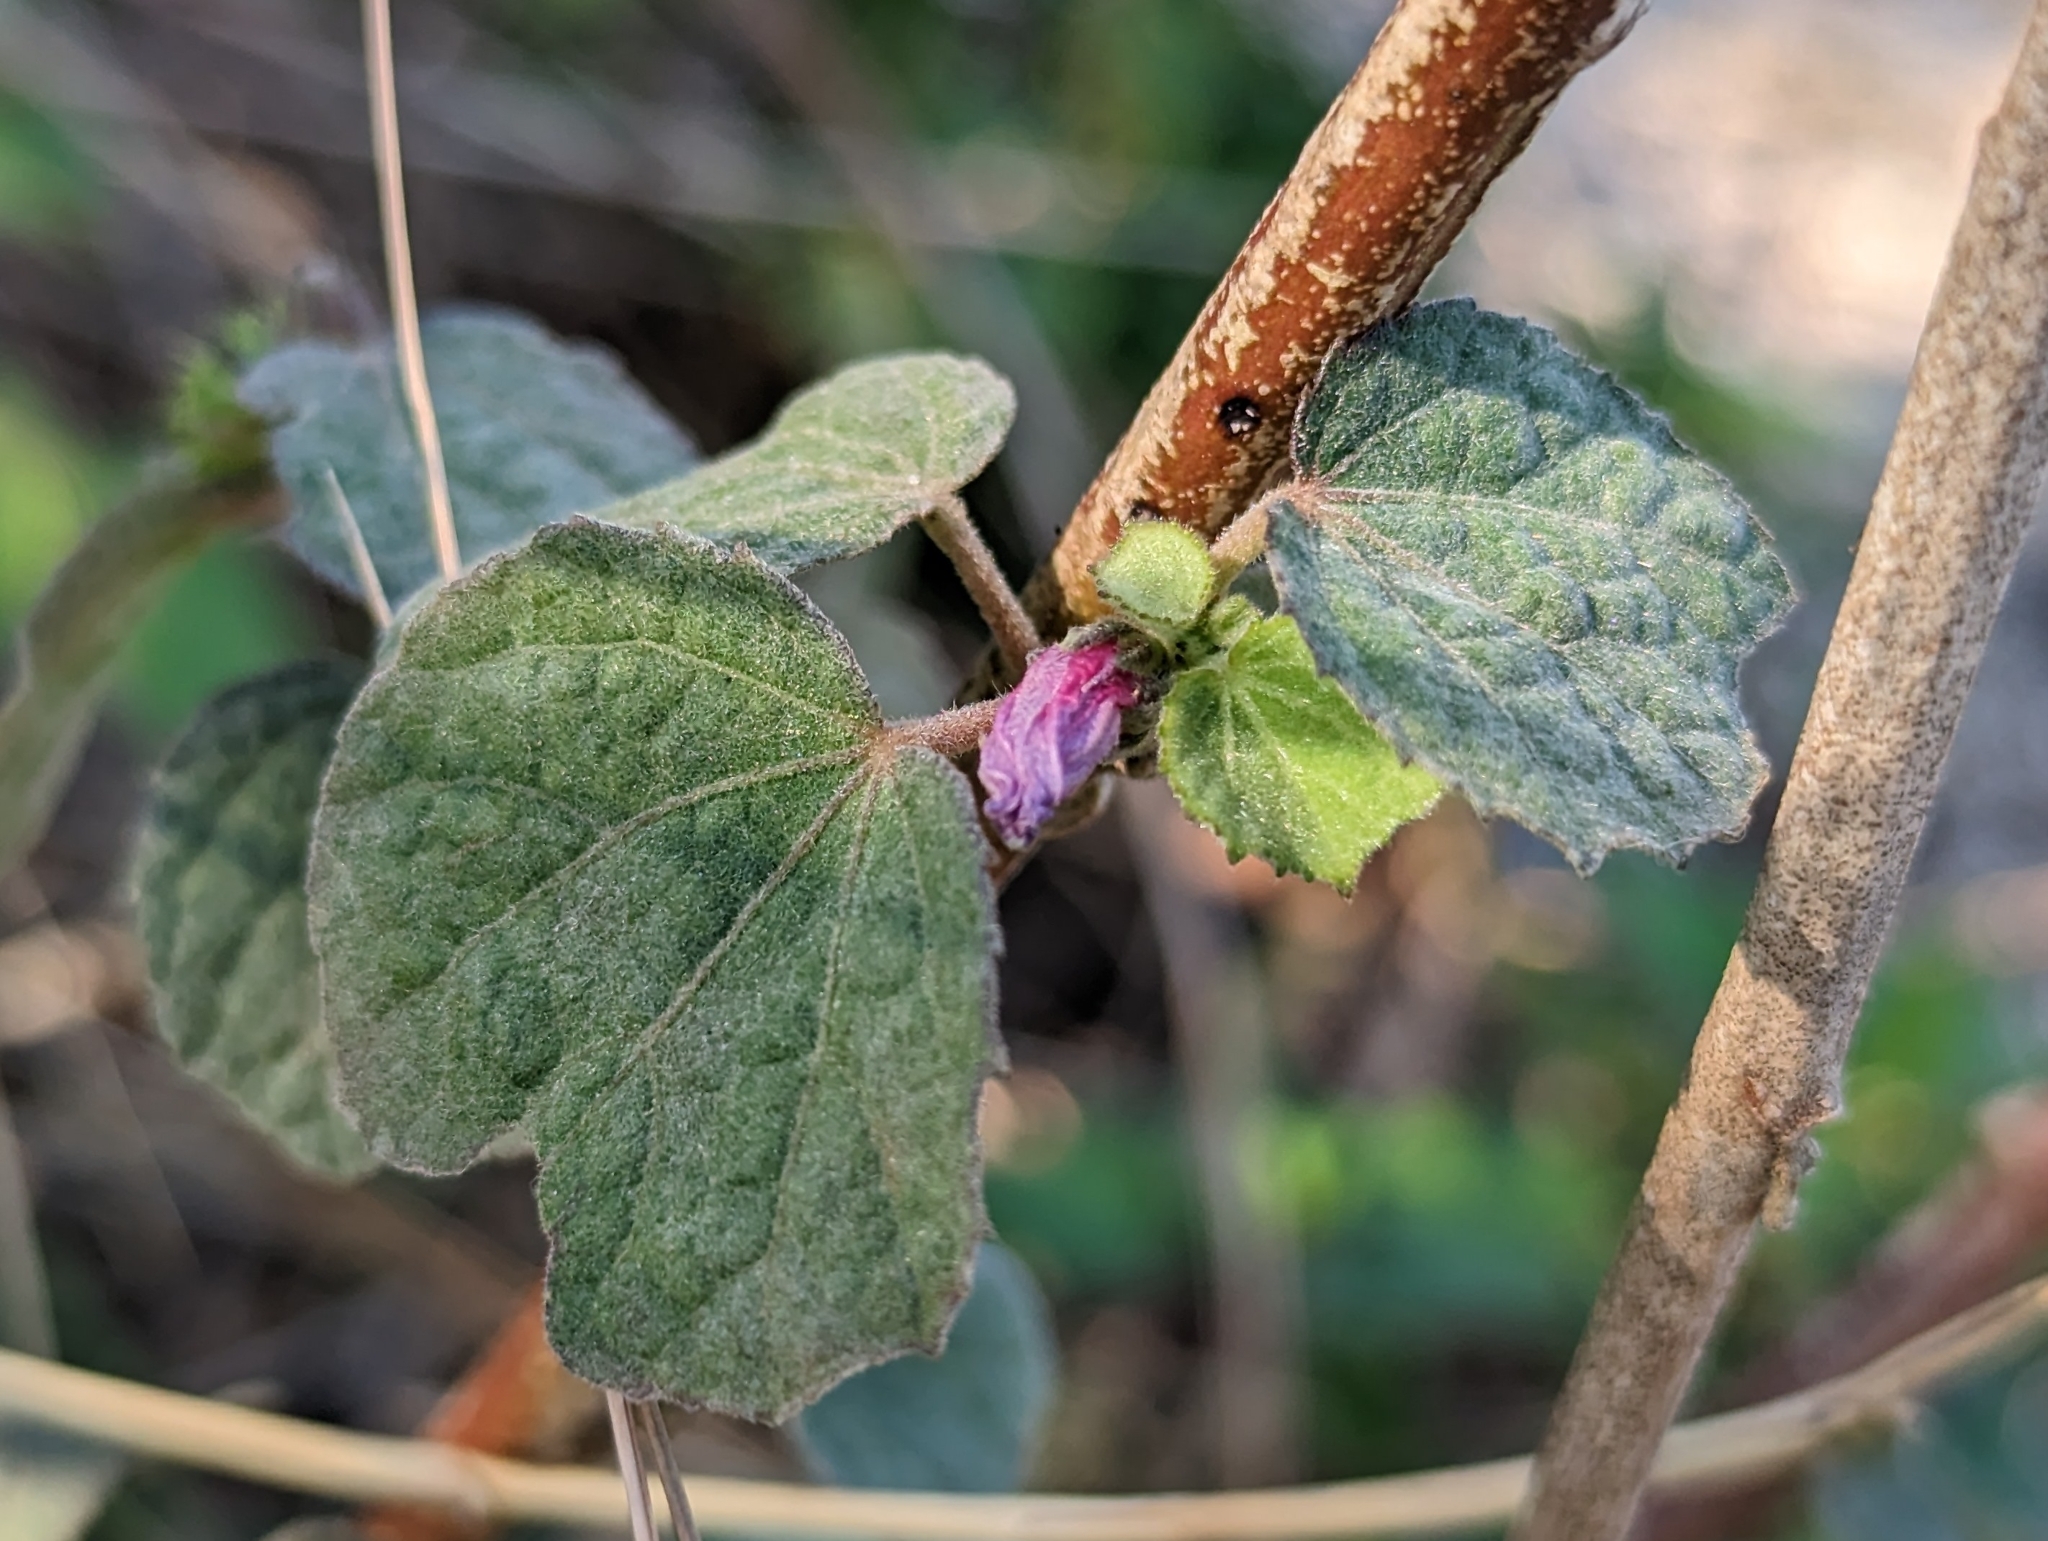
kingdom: Plantae
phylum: Tracheophyta
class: Magnoliopsida
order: Malvales
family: Malvaceae
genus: Urena
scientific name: Urena lobata
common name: Caesarweed
